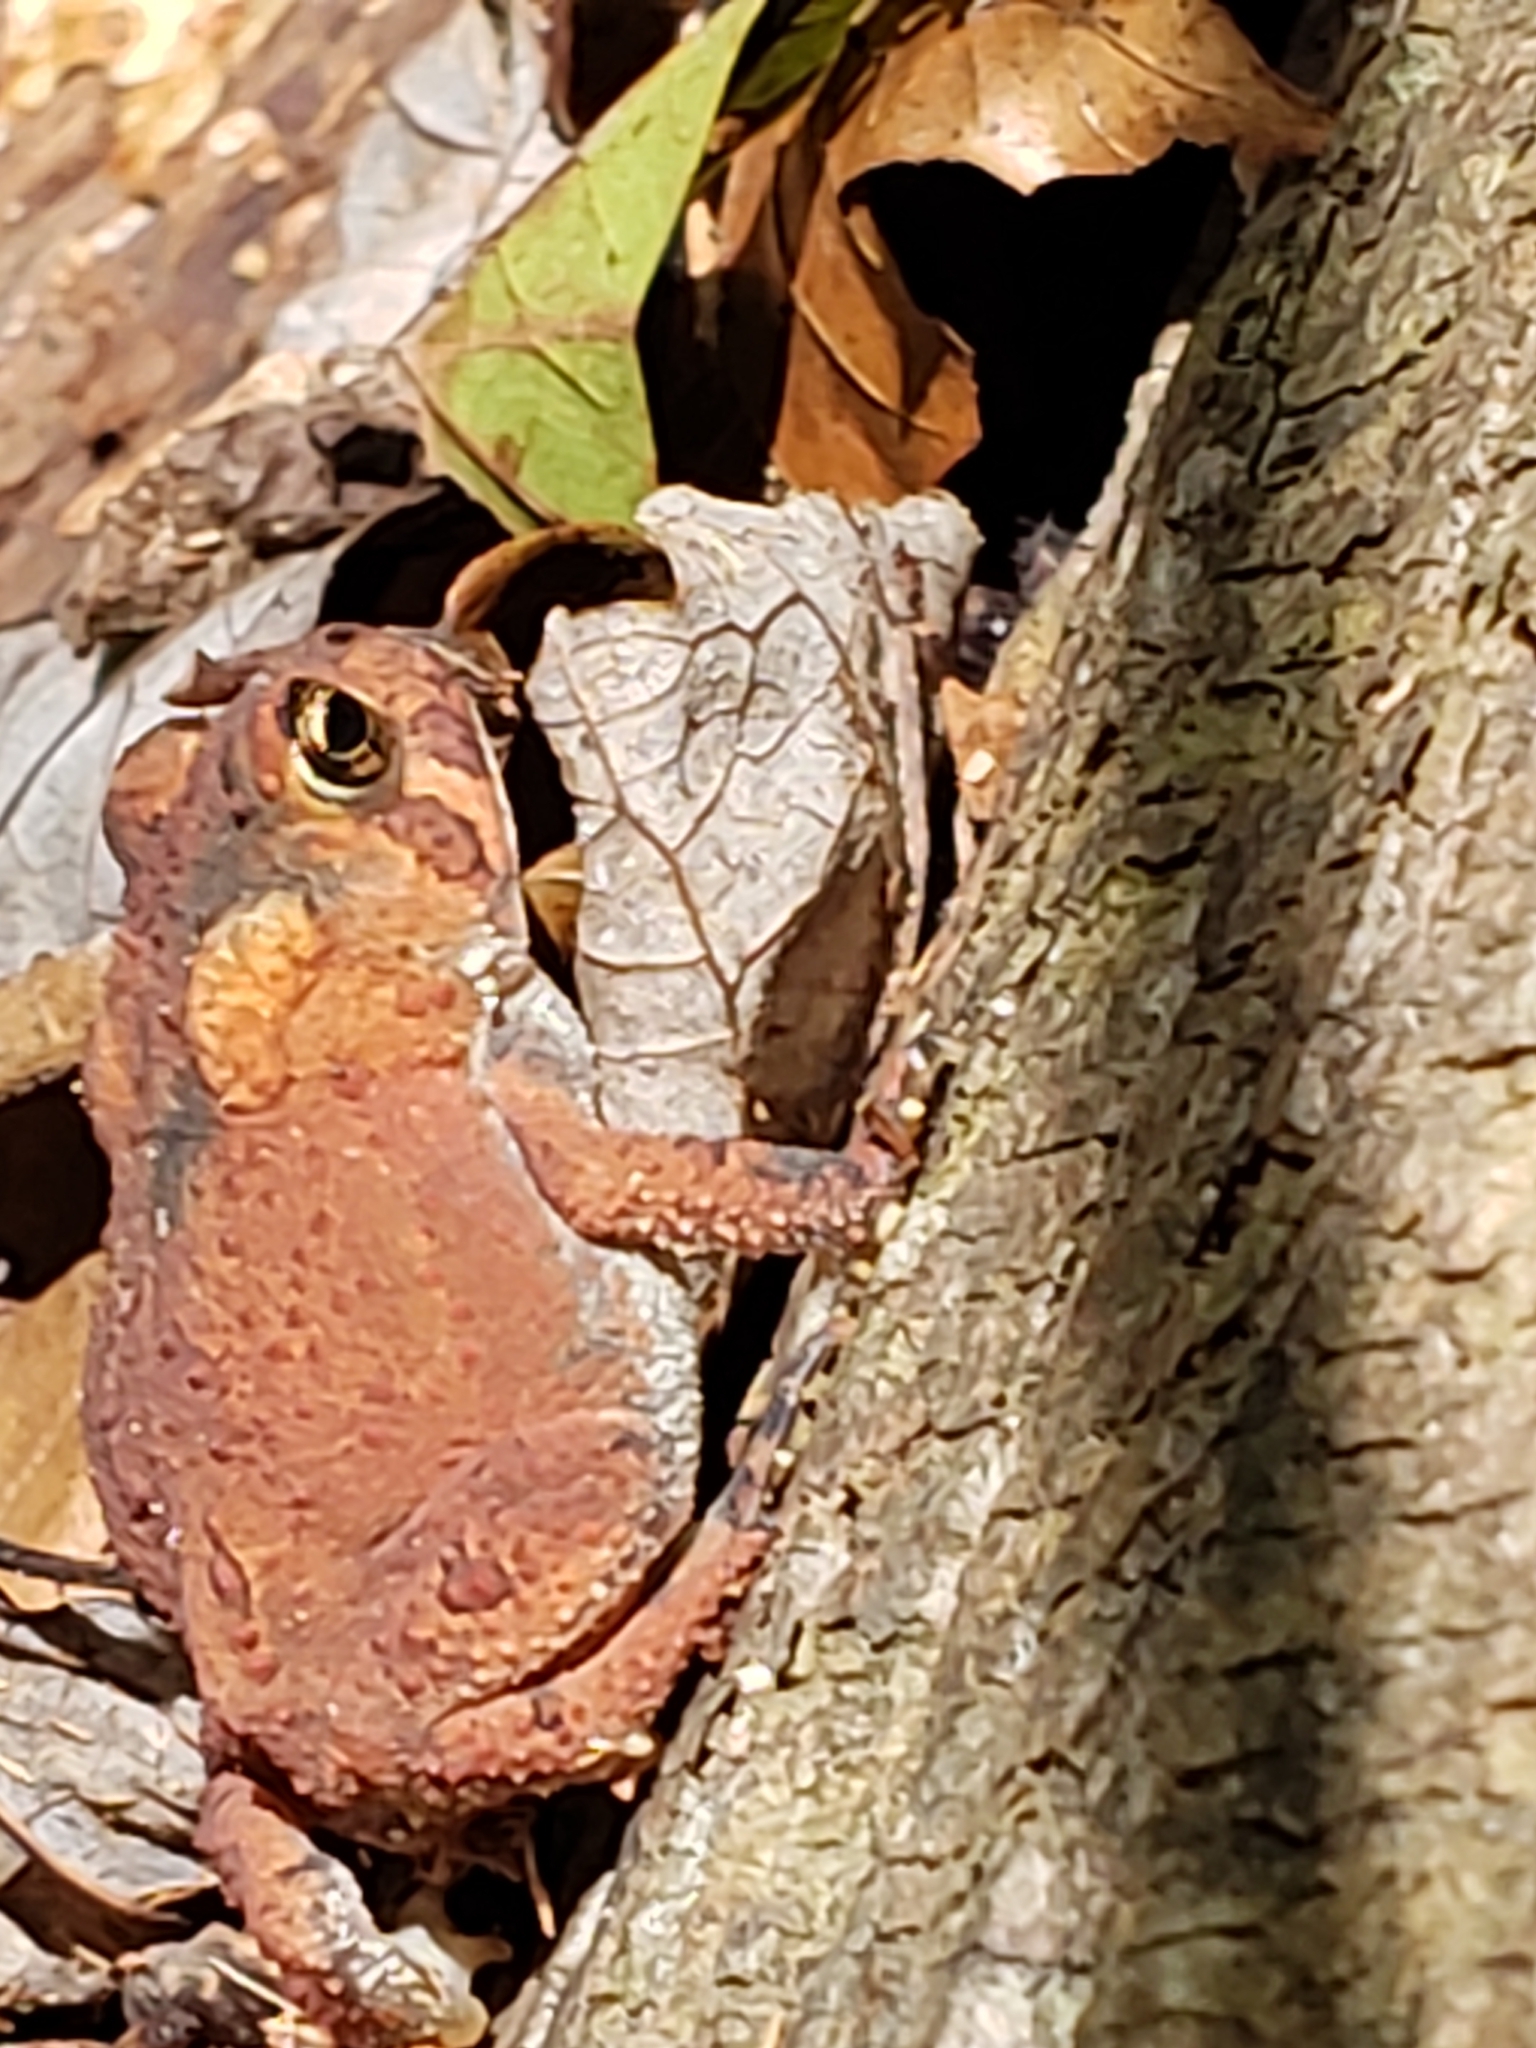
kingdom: Animalia
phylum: Chordata
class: Amphibia
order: Anura
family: Bufonidae
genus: Anaxyrus
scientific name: Anaxyrus americanus
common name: American toad
